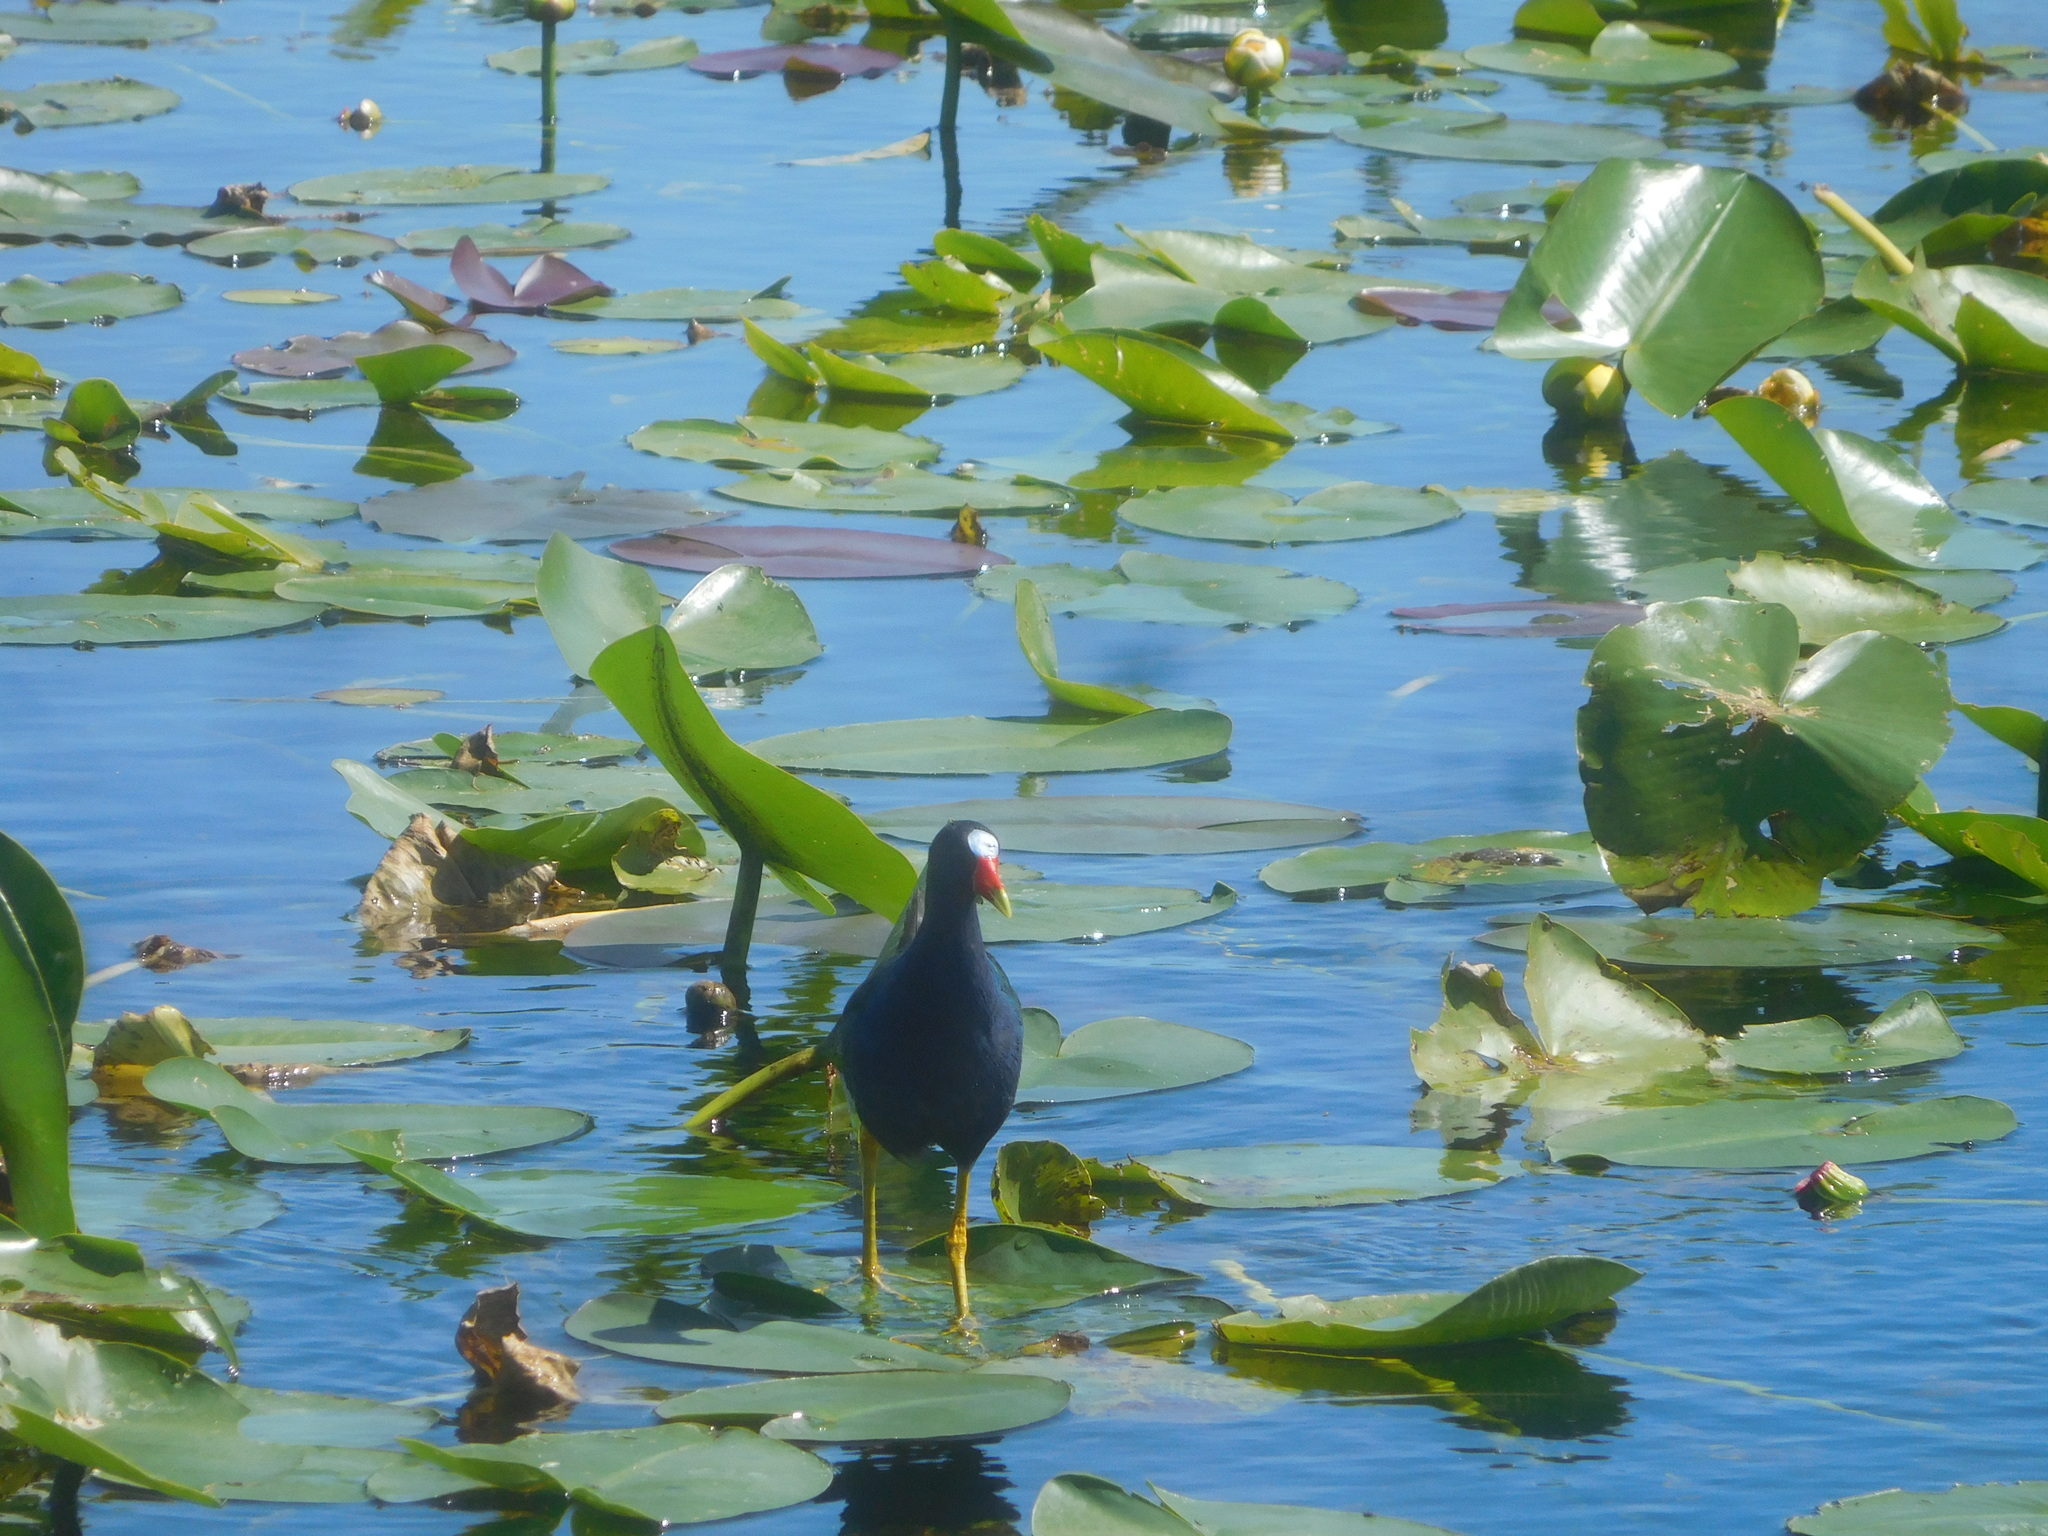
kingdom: Animalia
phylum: Chordata
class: Aves
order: Gruiformes
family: Rallidae
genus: Porphyrio
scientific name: Porphyrio martinica
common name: Purple gallinule
